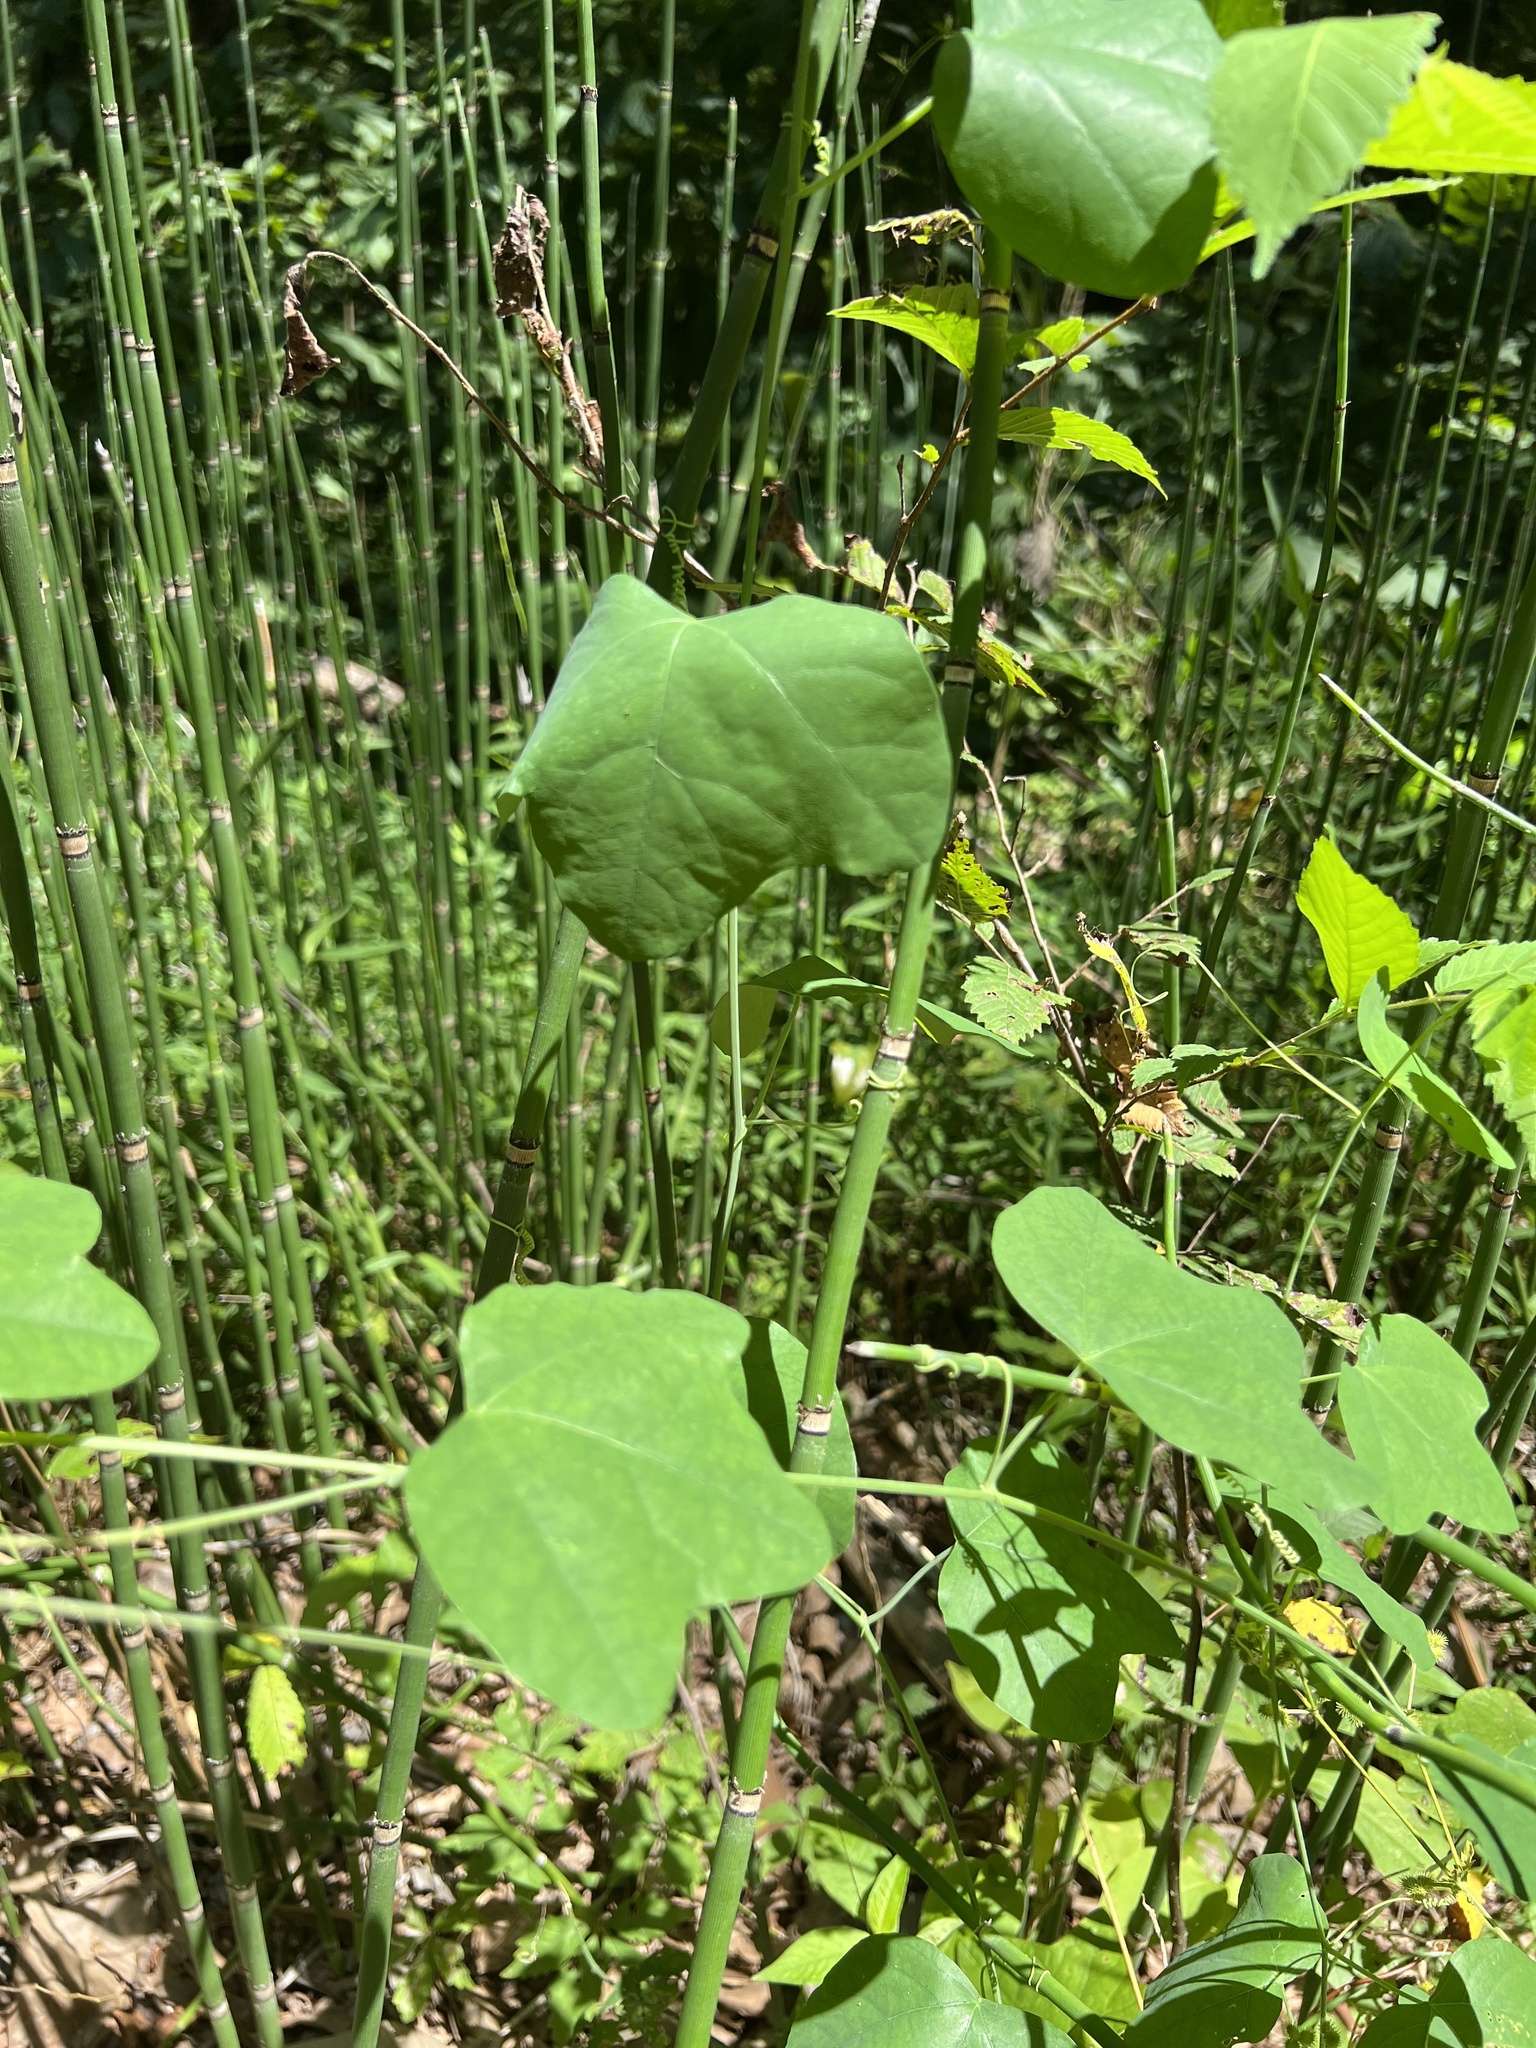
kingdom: Plantae
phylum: Tracheophyta
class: Magnoliopsida
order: Malpighiales
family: Passifloraceae
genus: Passiflora
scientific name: Passiflora lutea
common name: Yellow passionflower
